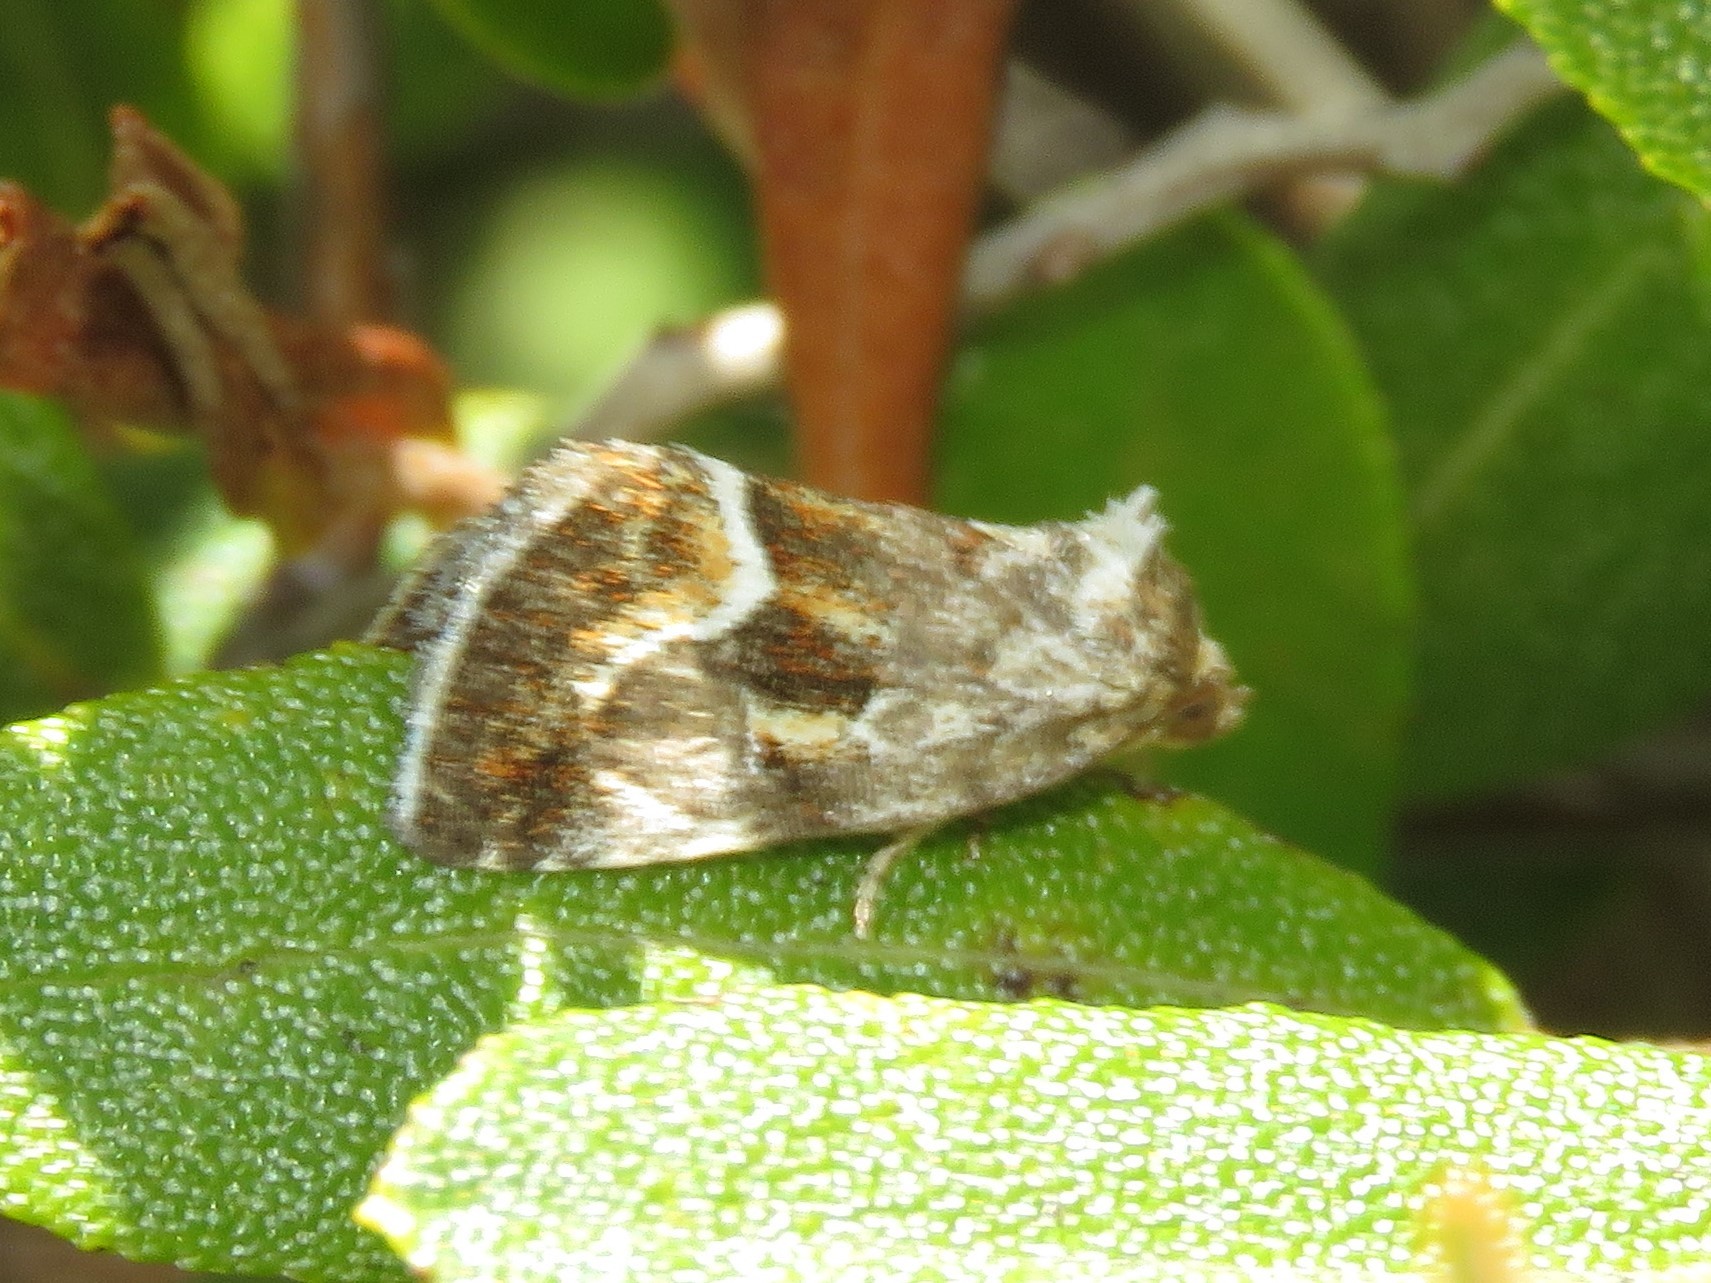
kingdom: Animalia
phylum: Arthropoda
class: Insecta
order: Lepidoptera
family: Noctuidae
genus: Deltote
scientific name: Deltote bellicula
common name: Bog glyph
